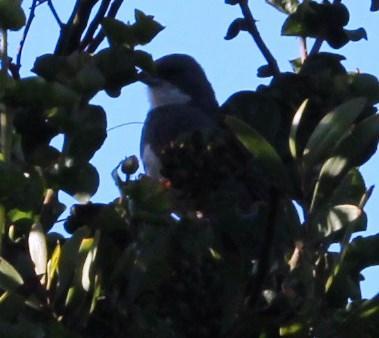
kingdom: Animalia
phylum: Chordata
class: Aves
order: Passeriformes
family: Thraupidae
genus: Diuca
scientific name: Diuca diuca
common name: Common diuca finch
